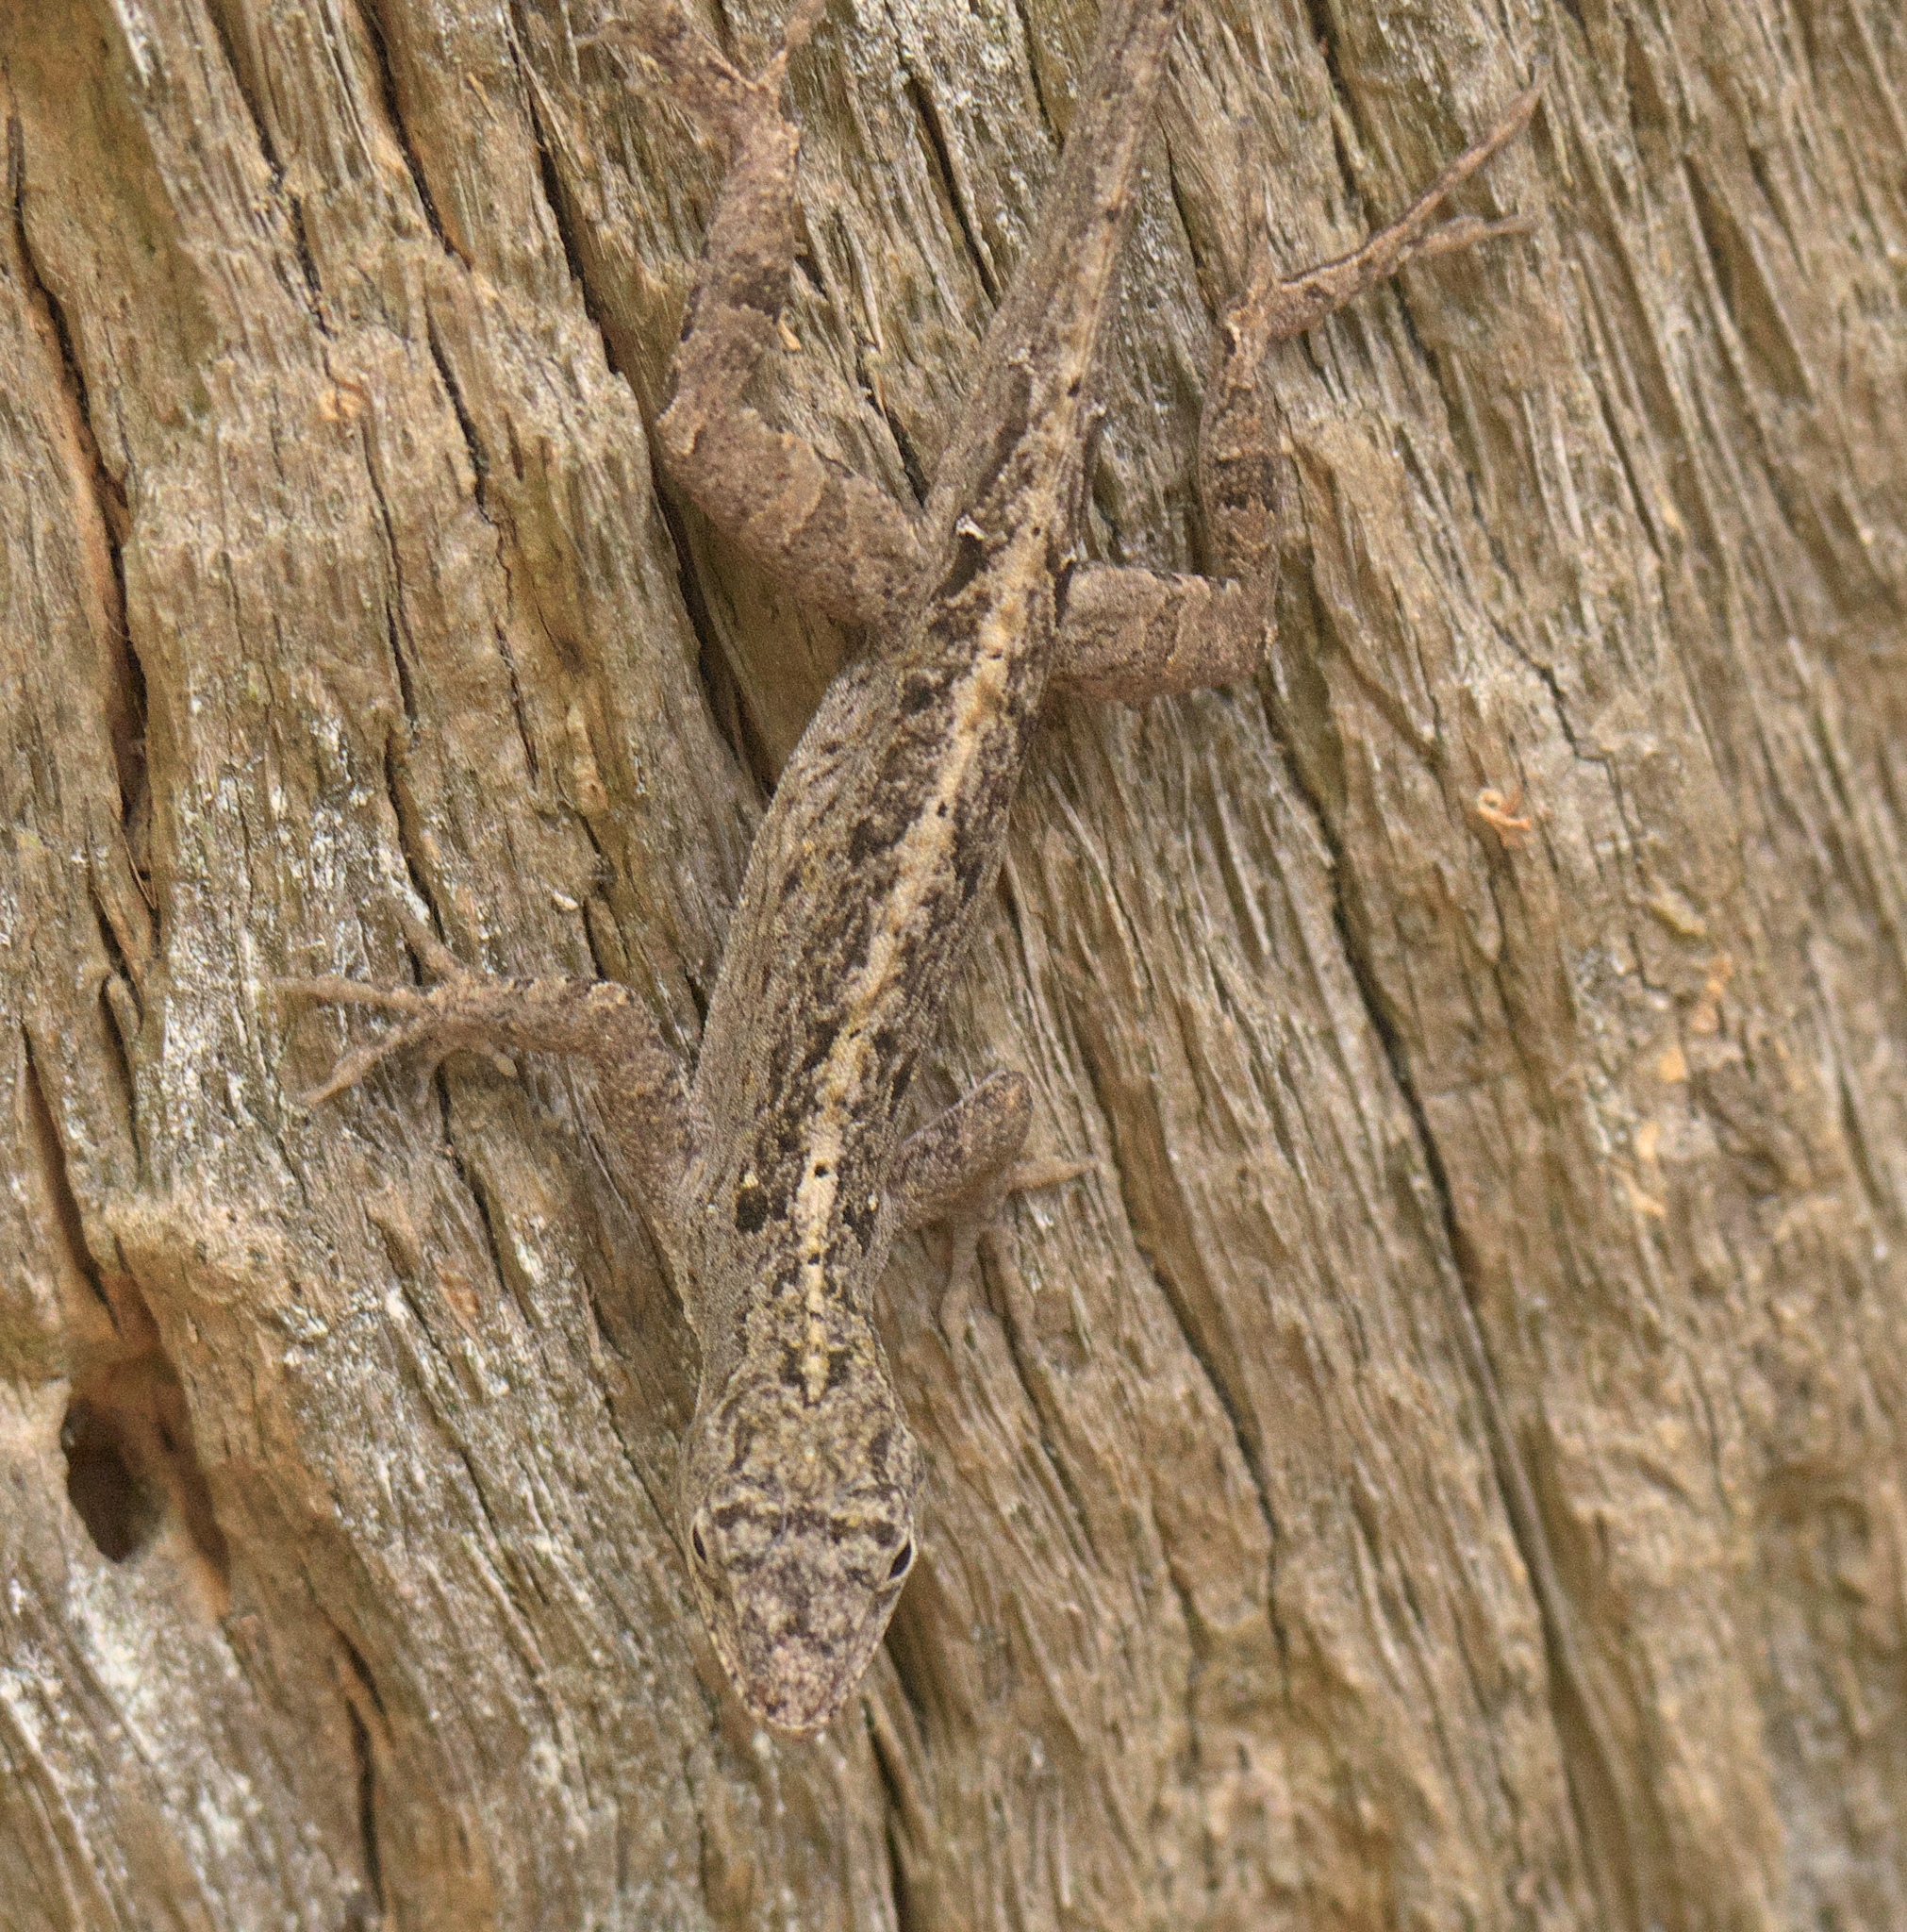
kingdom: Animalia
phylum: Chordata
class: Squamata
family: Dactyloidae
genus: Anolis
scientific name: Anolis sagrei
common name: Brown anole
